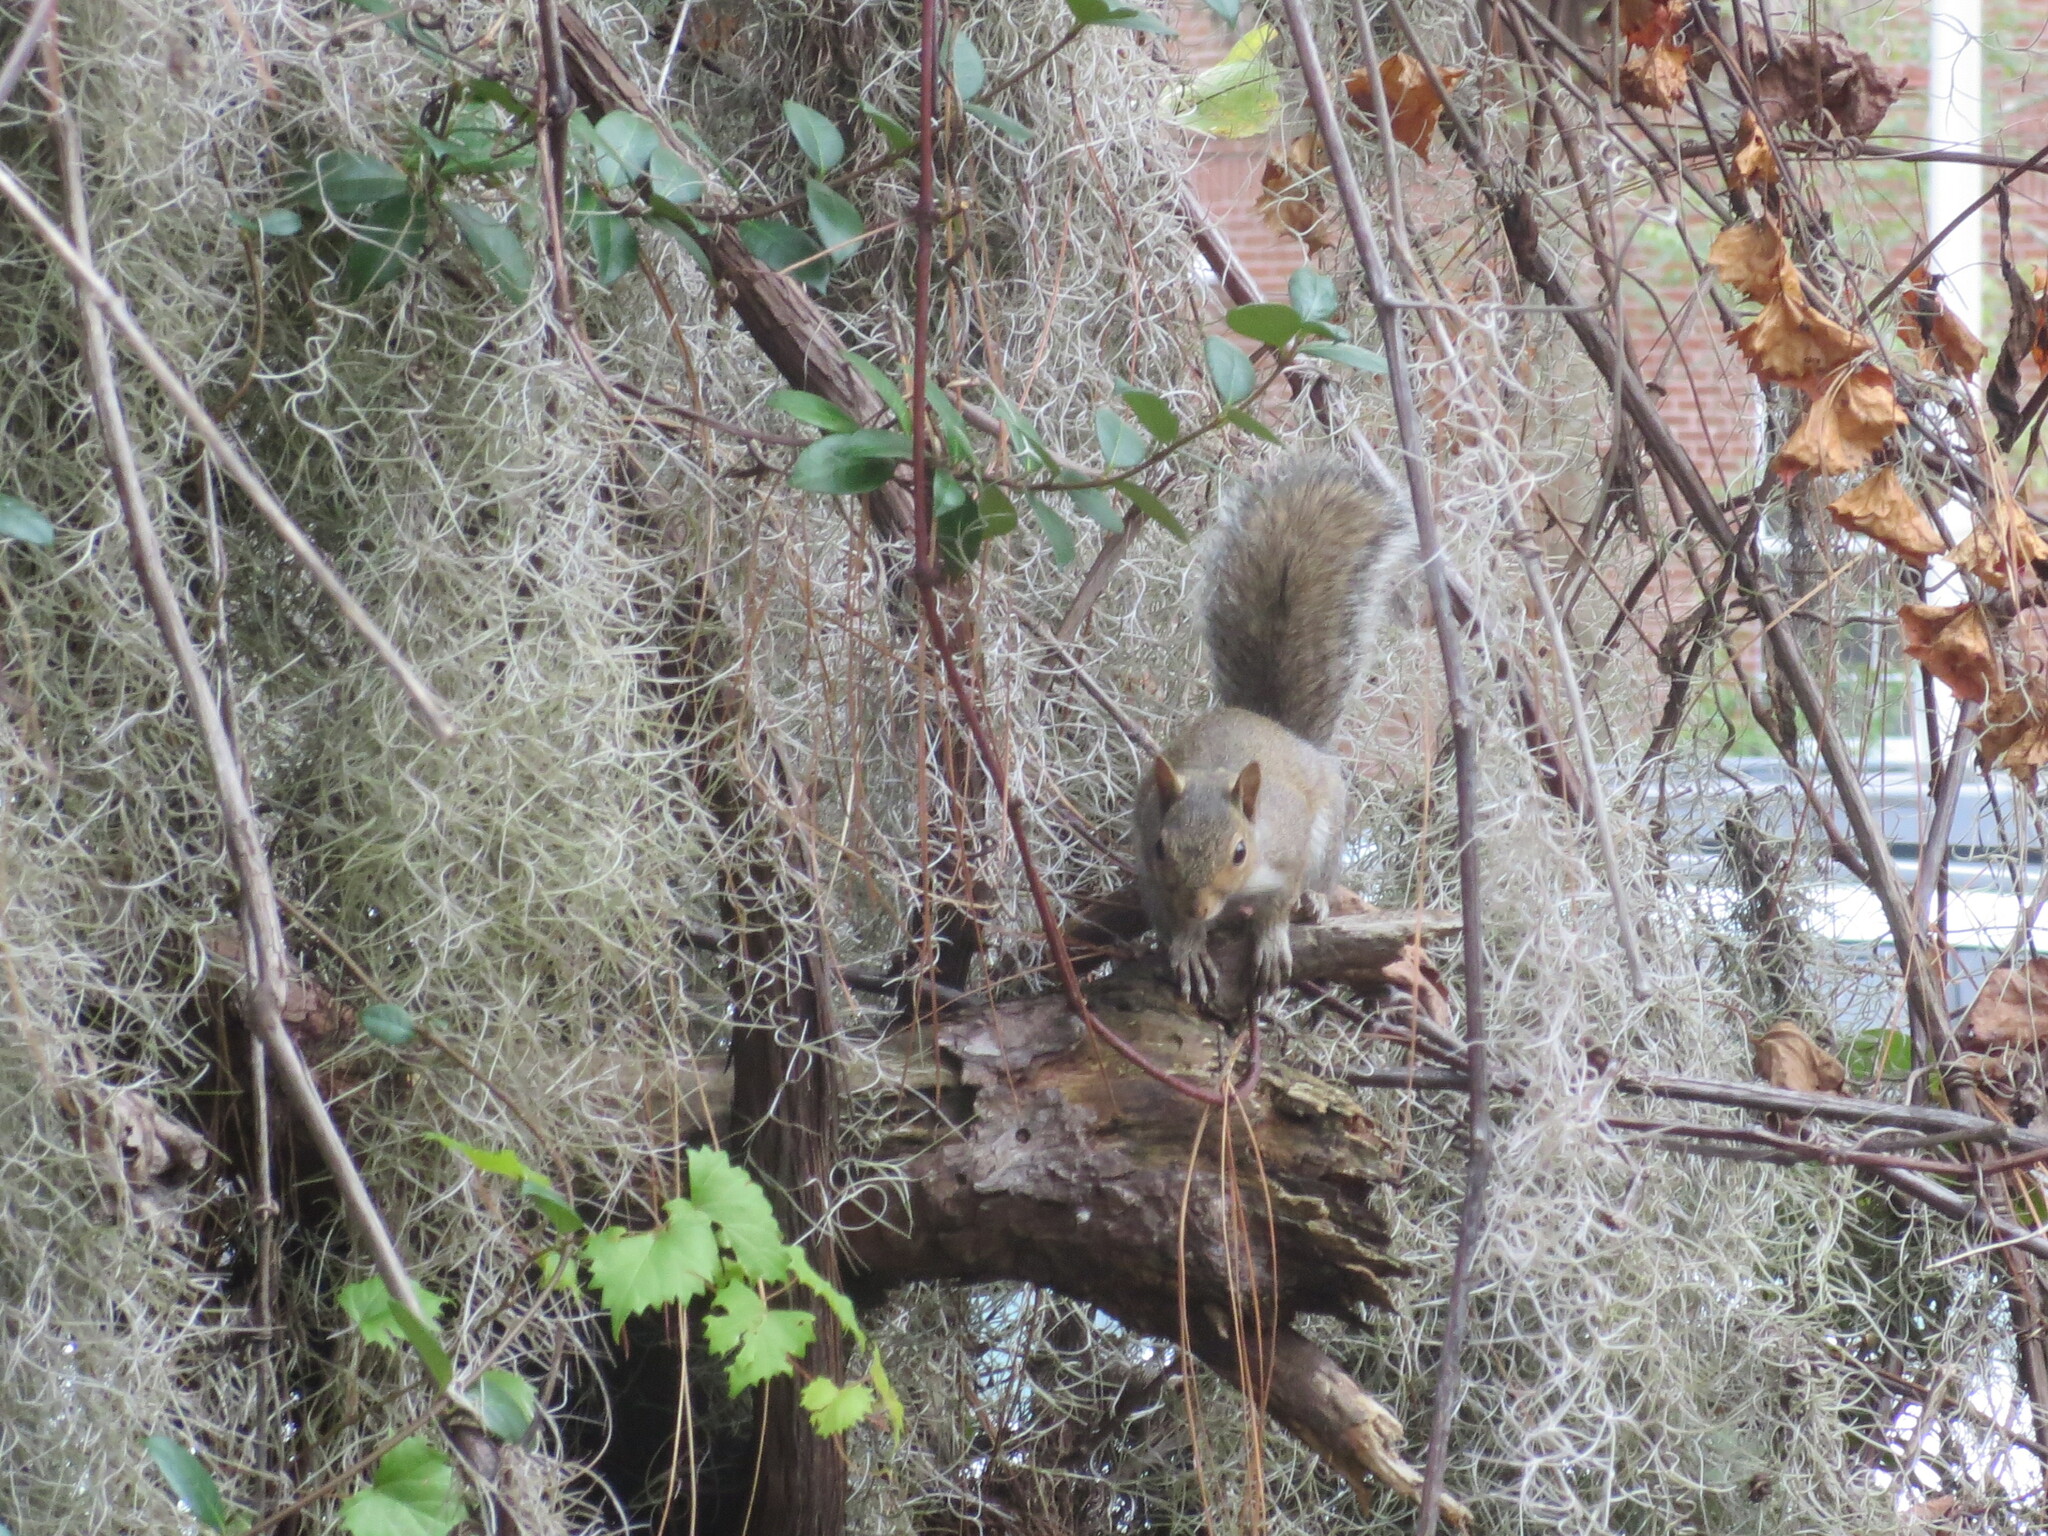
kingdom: Animalia
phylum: Chordata
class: Mammalia
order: Rodentia
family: Sciuridae
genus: Sciurus
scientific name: Sciurus carolinensis
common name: Eastern gray squirrel
